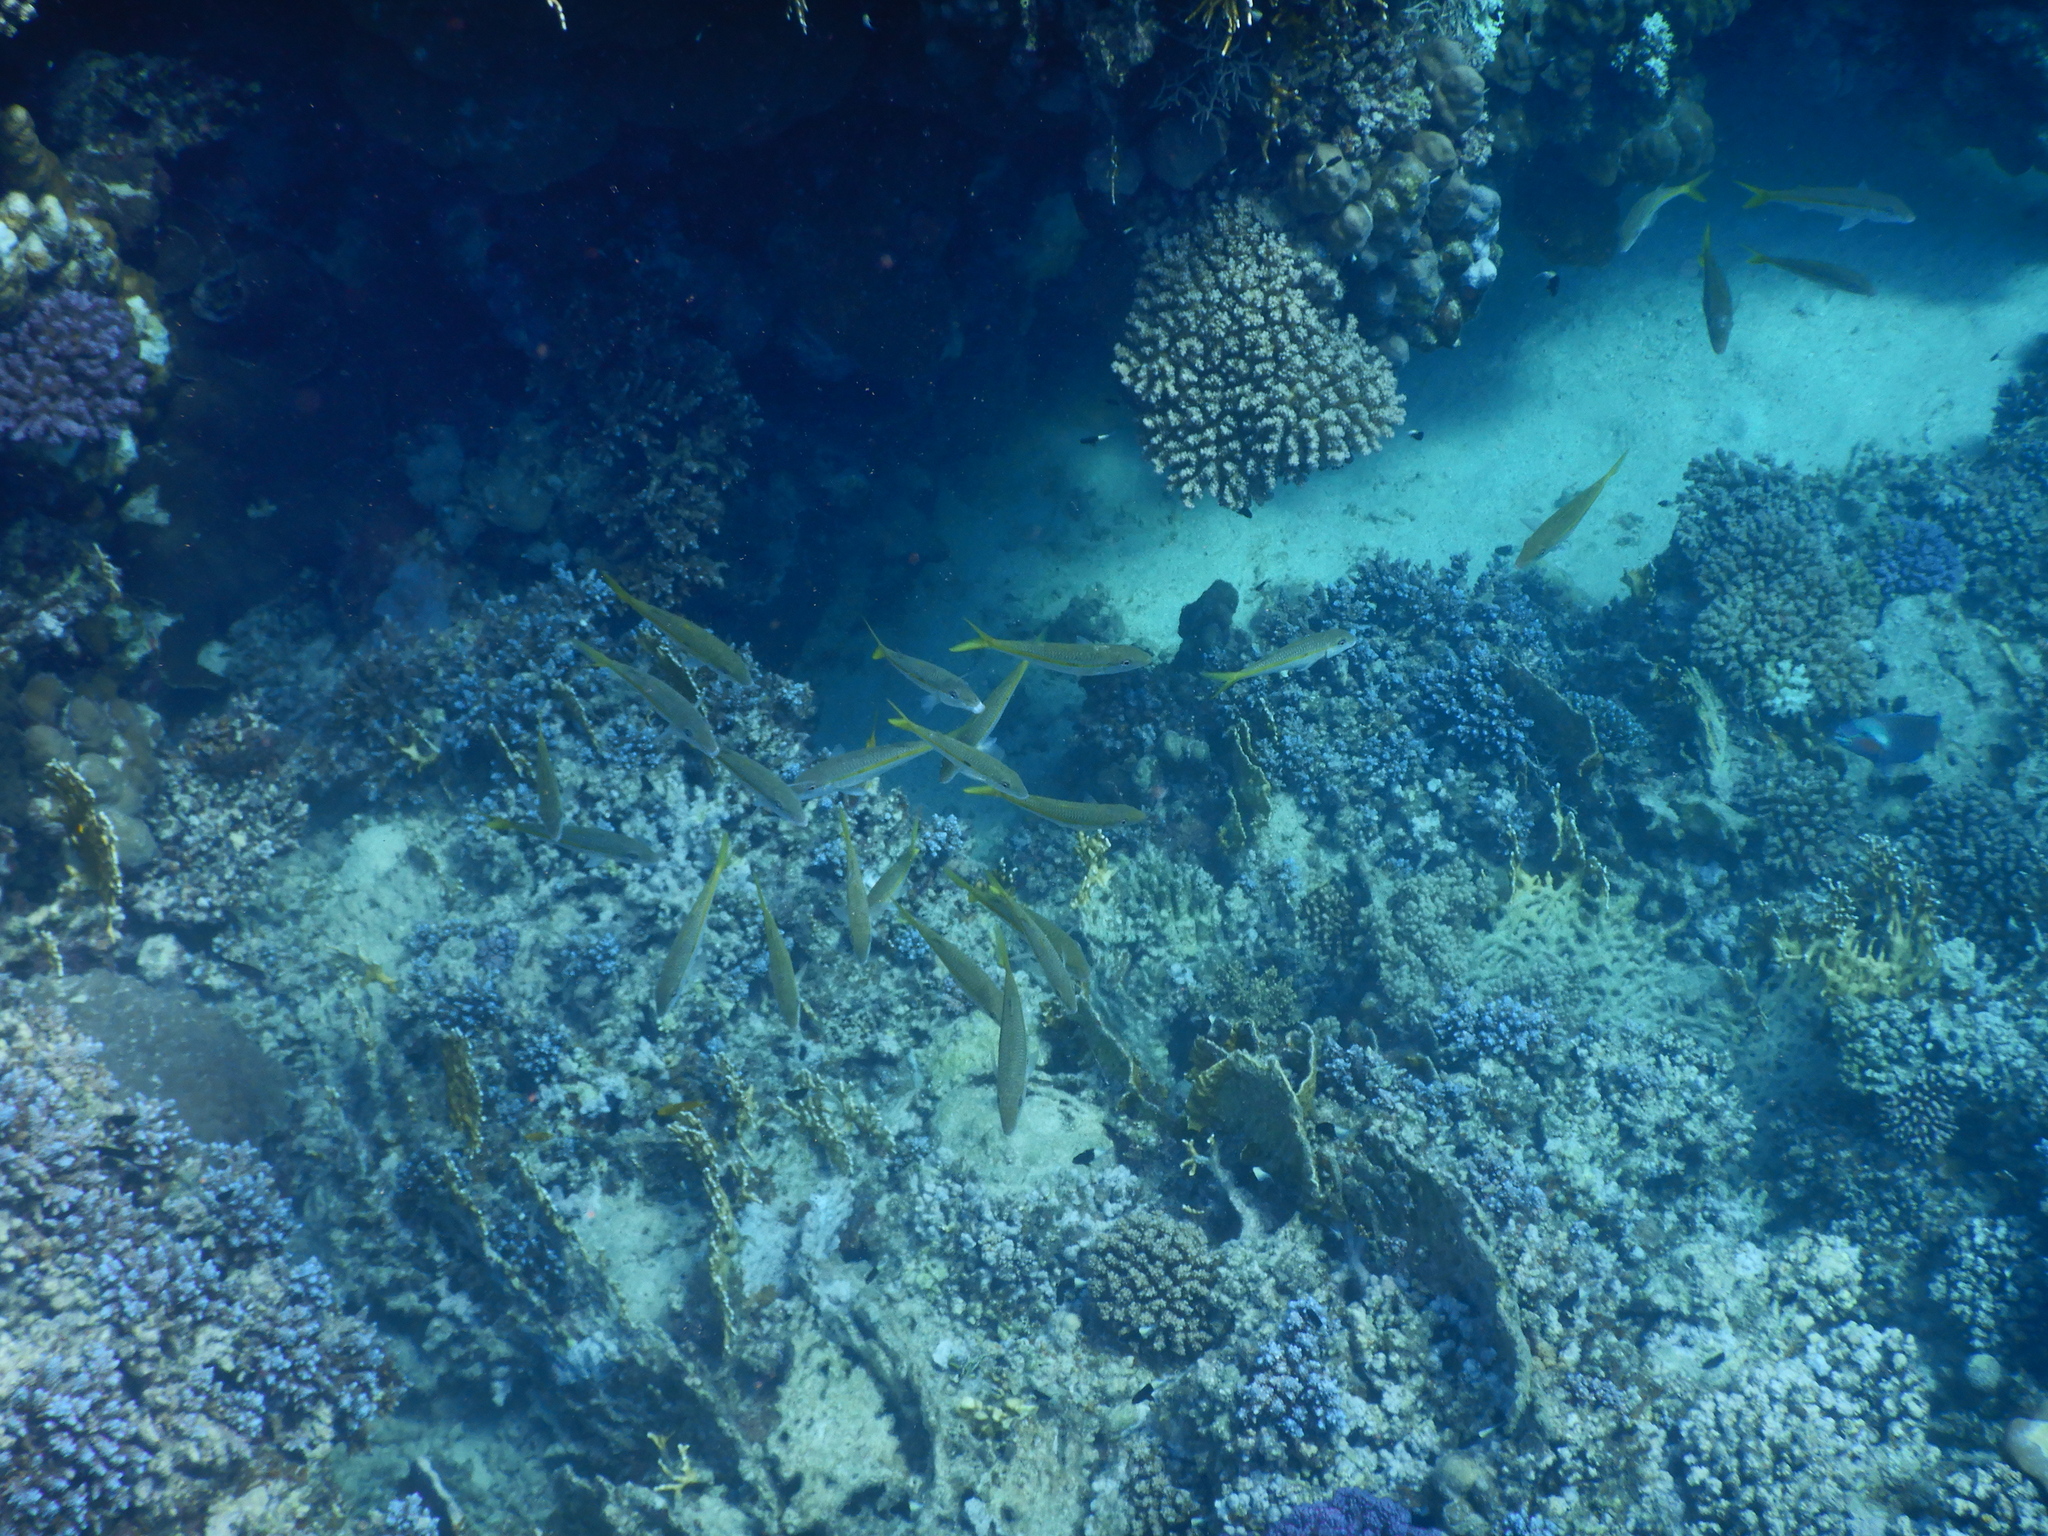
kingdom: Animalia
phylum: Chordata
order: Perciformes
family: Mullidae
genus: Mulloidichthys
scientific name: Mulloidichthys flavolineatus
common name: Yellowstripe goatfish
